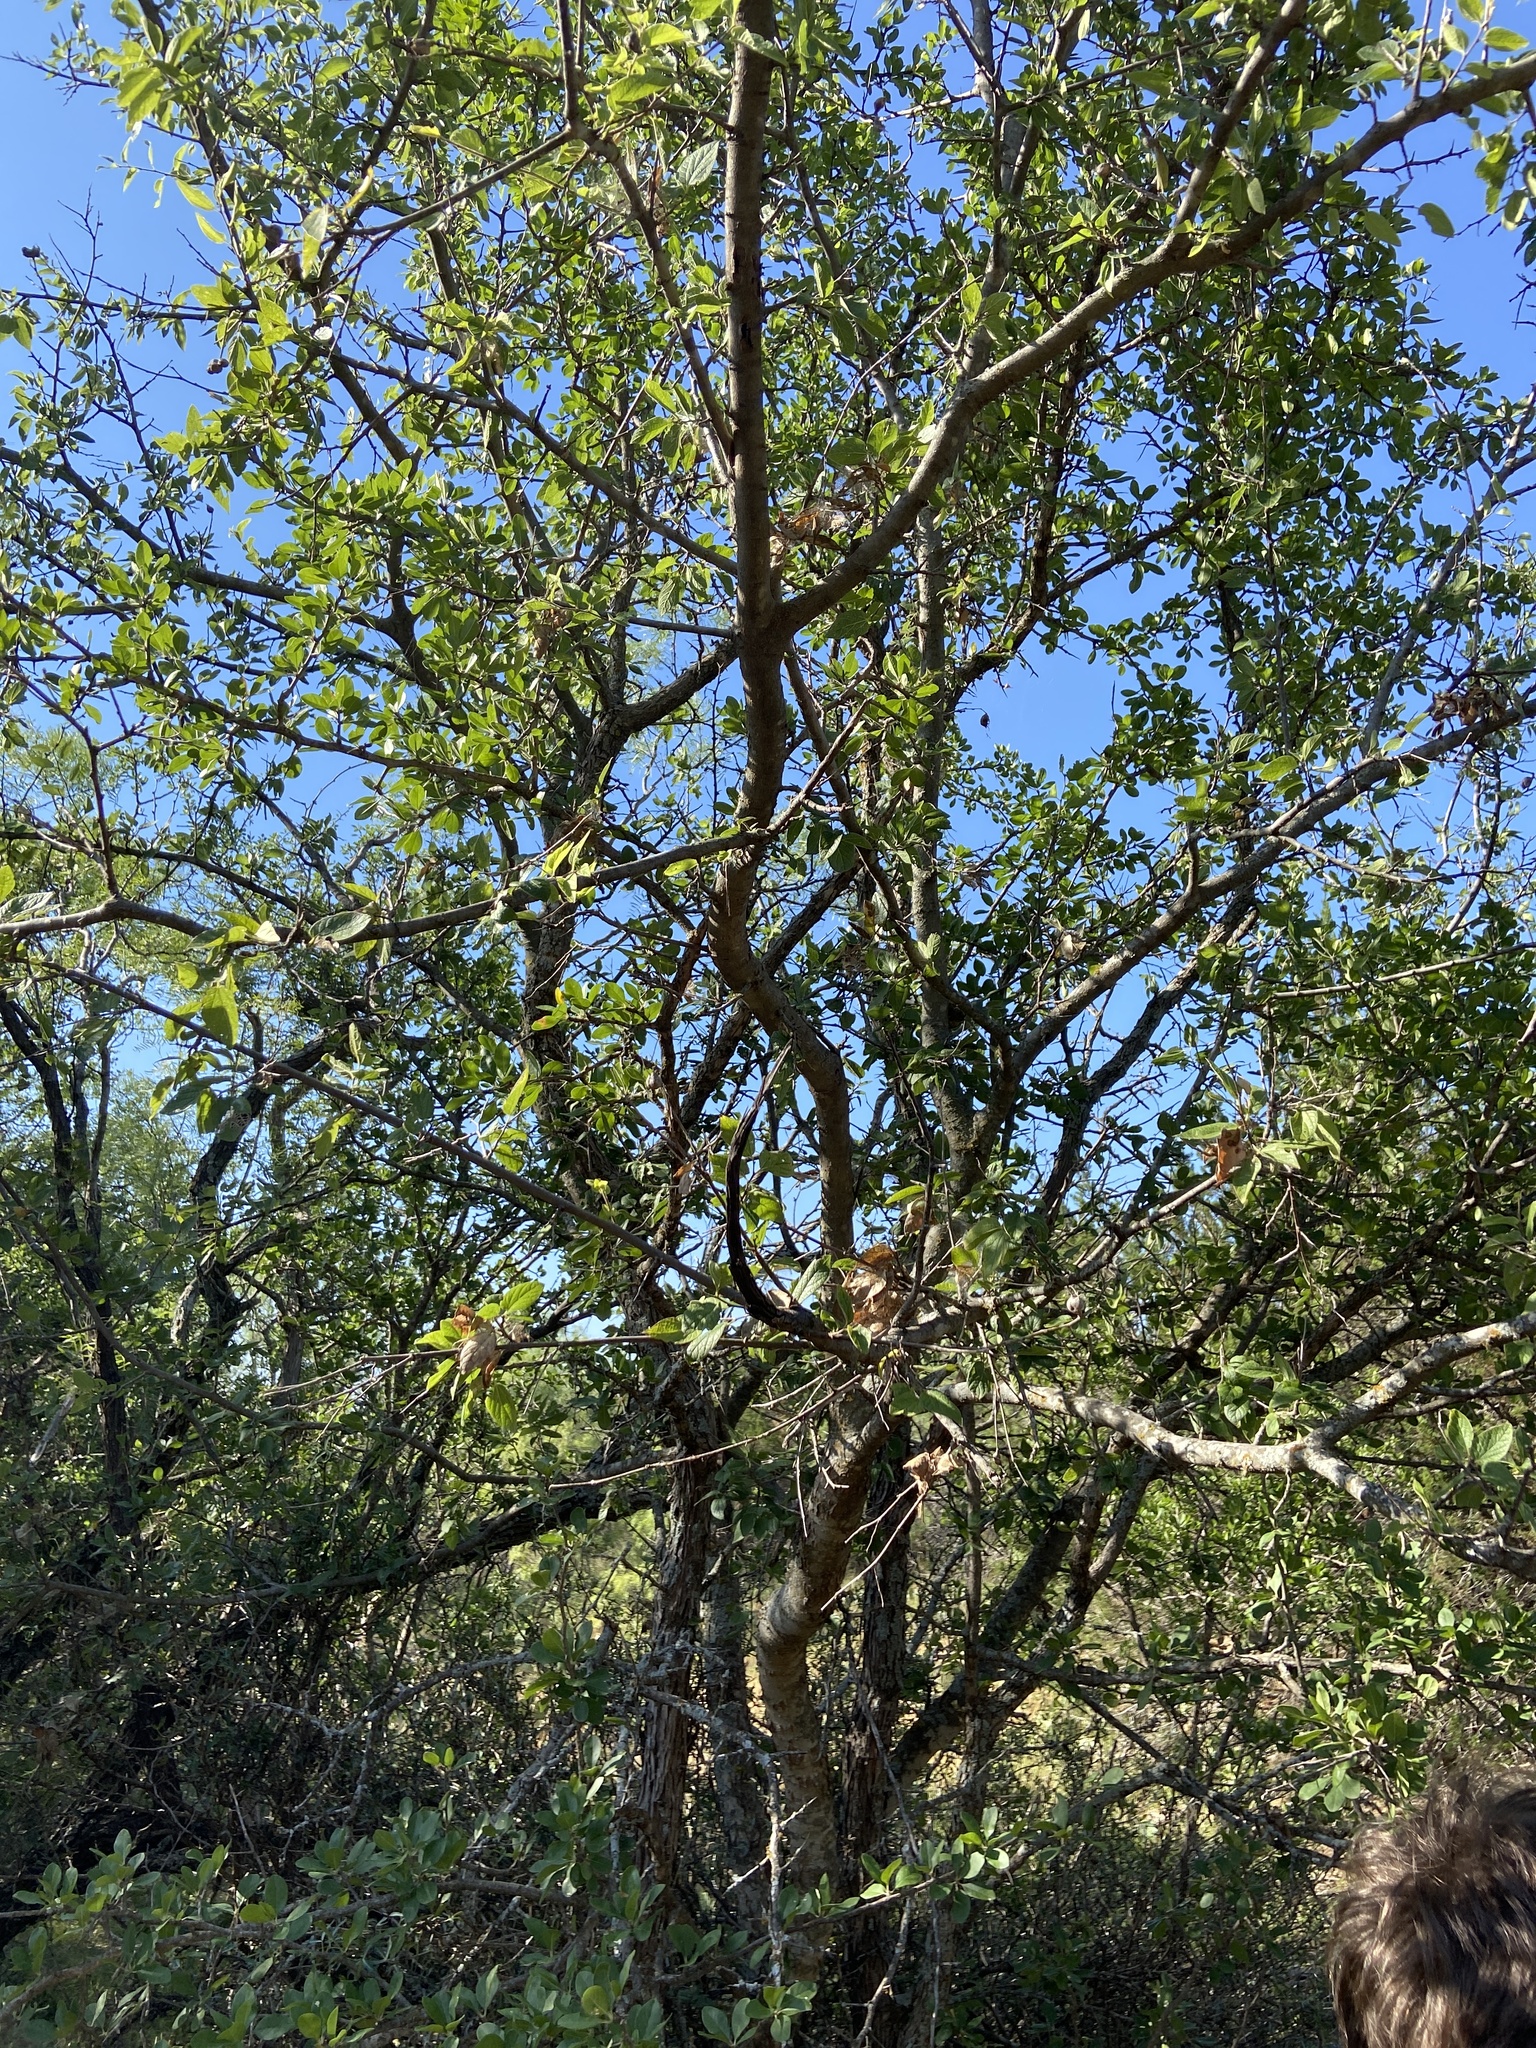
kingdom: Plantae
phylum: Tracheophyta
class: Magnoliopsida
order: Rosales
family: Cannabaceae
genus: Celtis
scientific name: Celtis reticulata
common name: Netleaf hackberry
